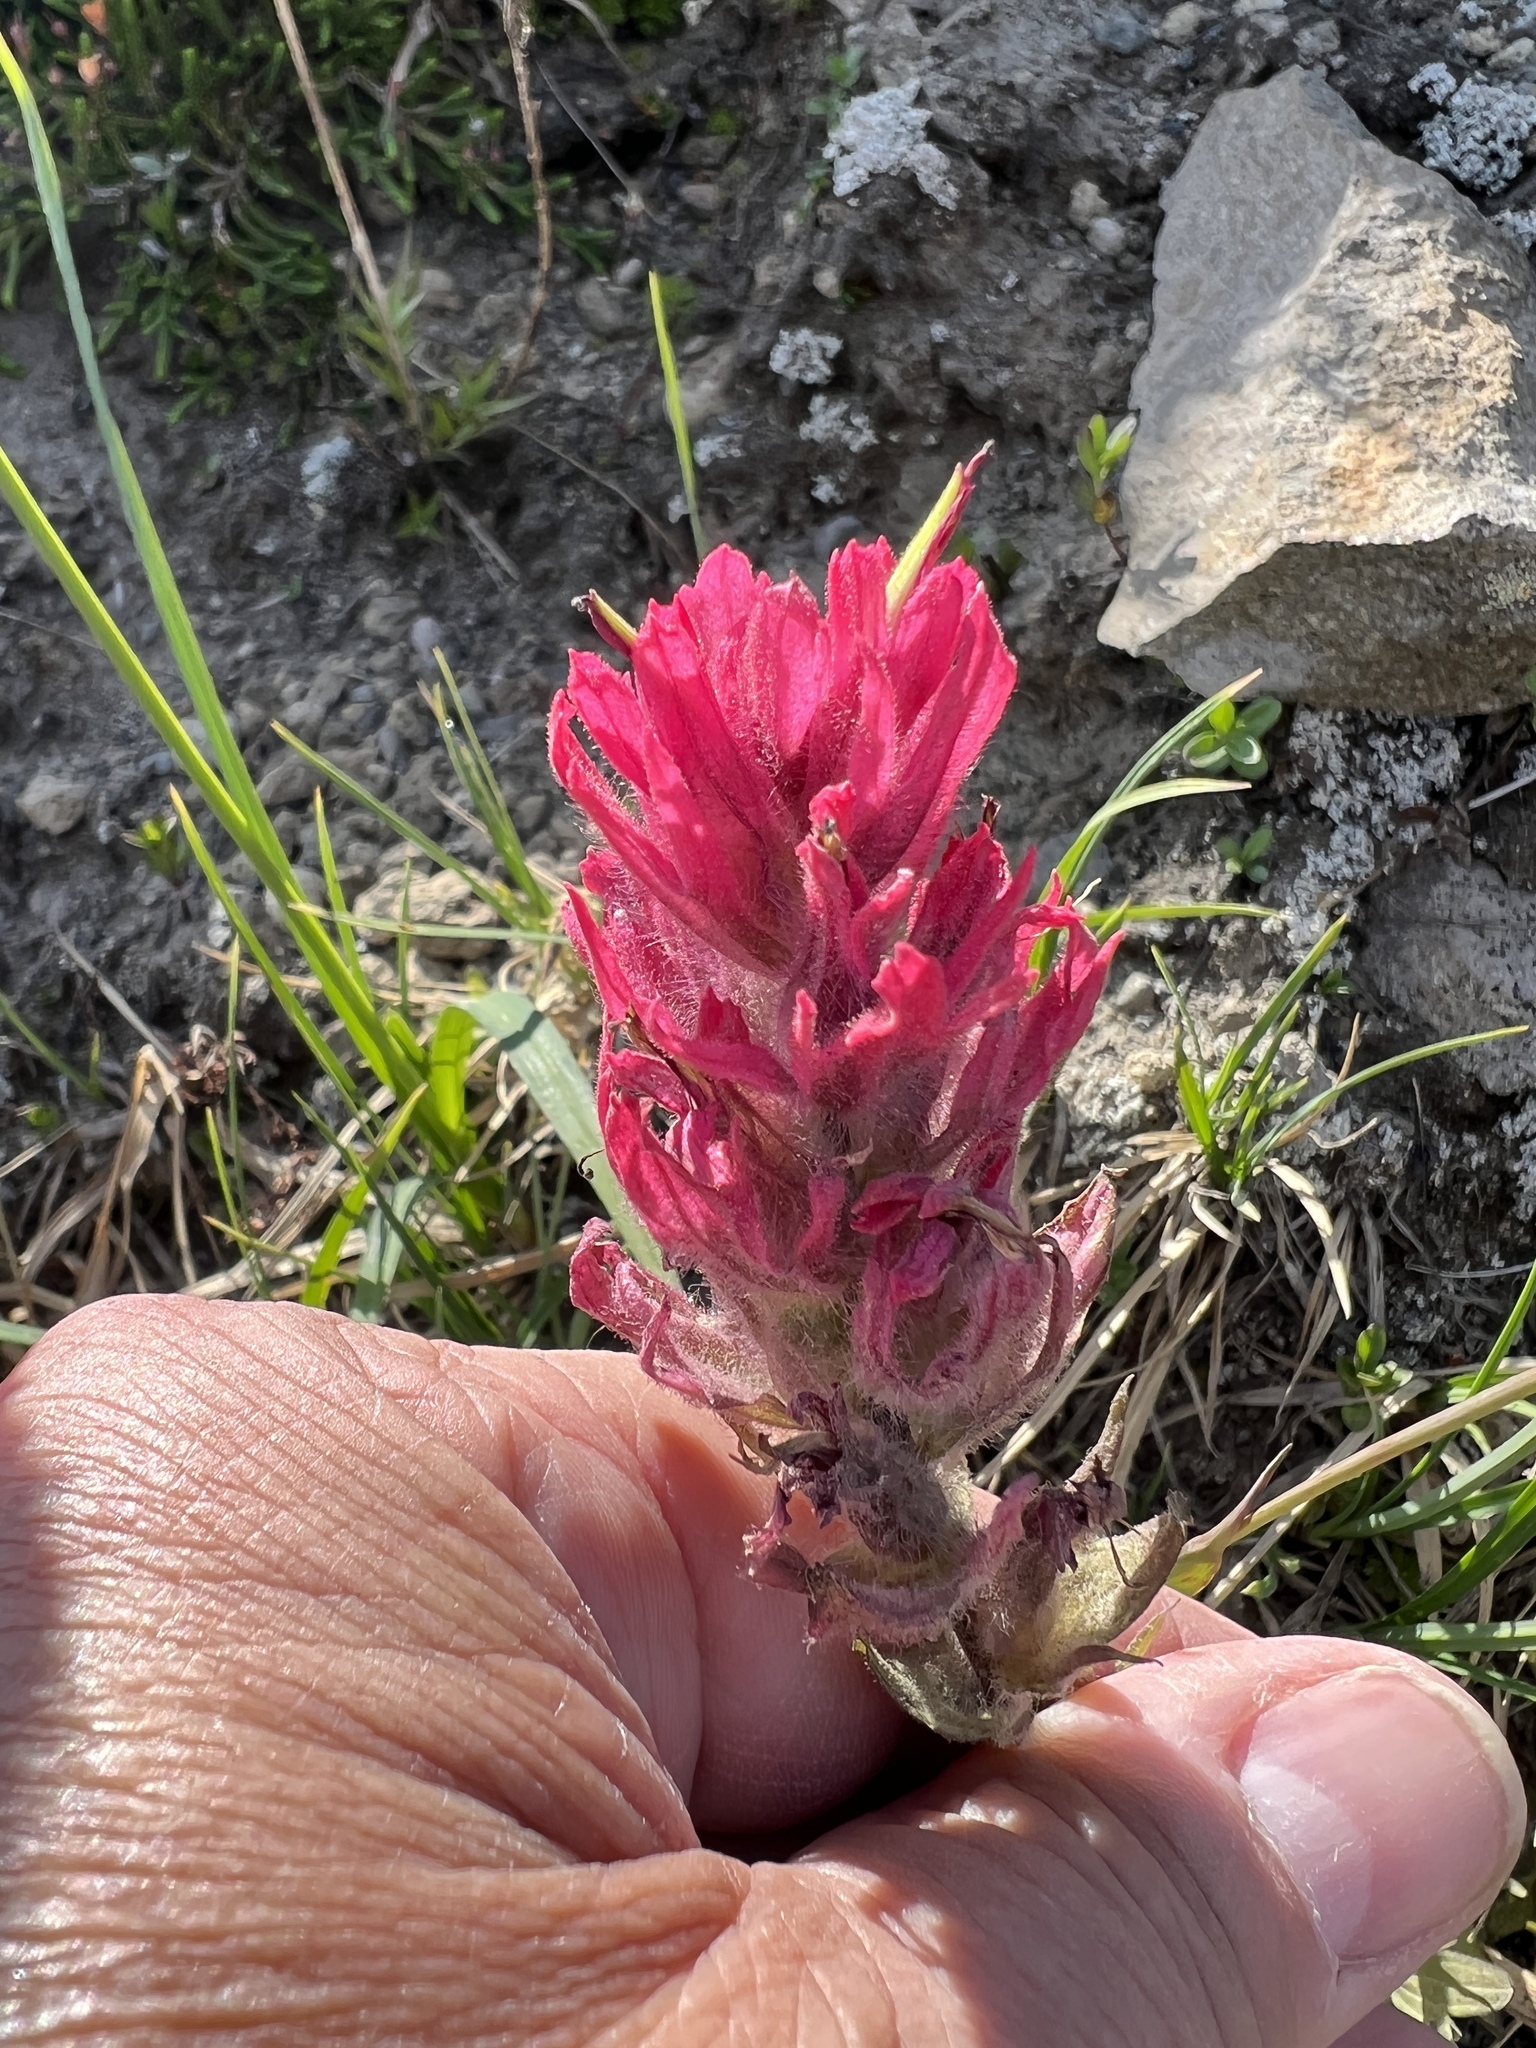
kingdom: Plantae
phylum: Tracheophyta
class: Magnoliopsida
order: Lamiales
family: Orobanchaceae
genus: Castilleja
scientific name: Castilleja parviflora
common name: Mountain paintbrush
